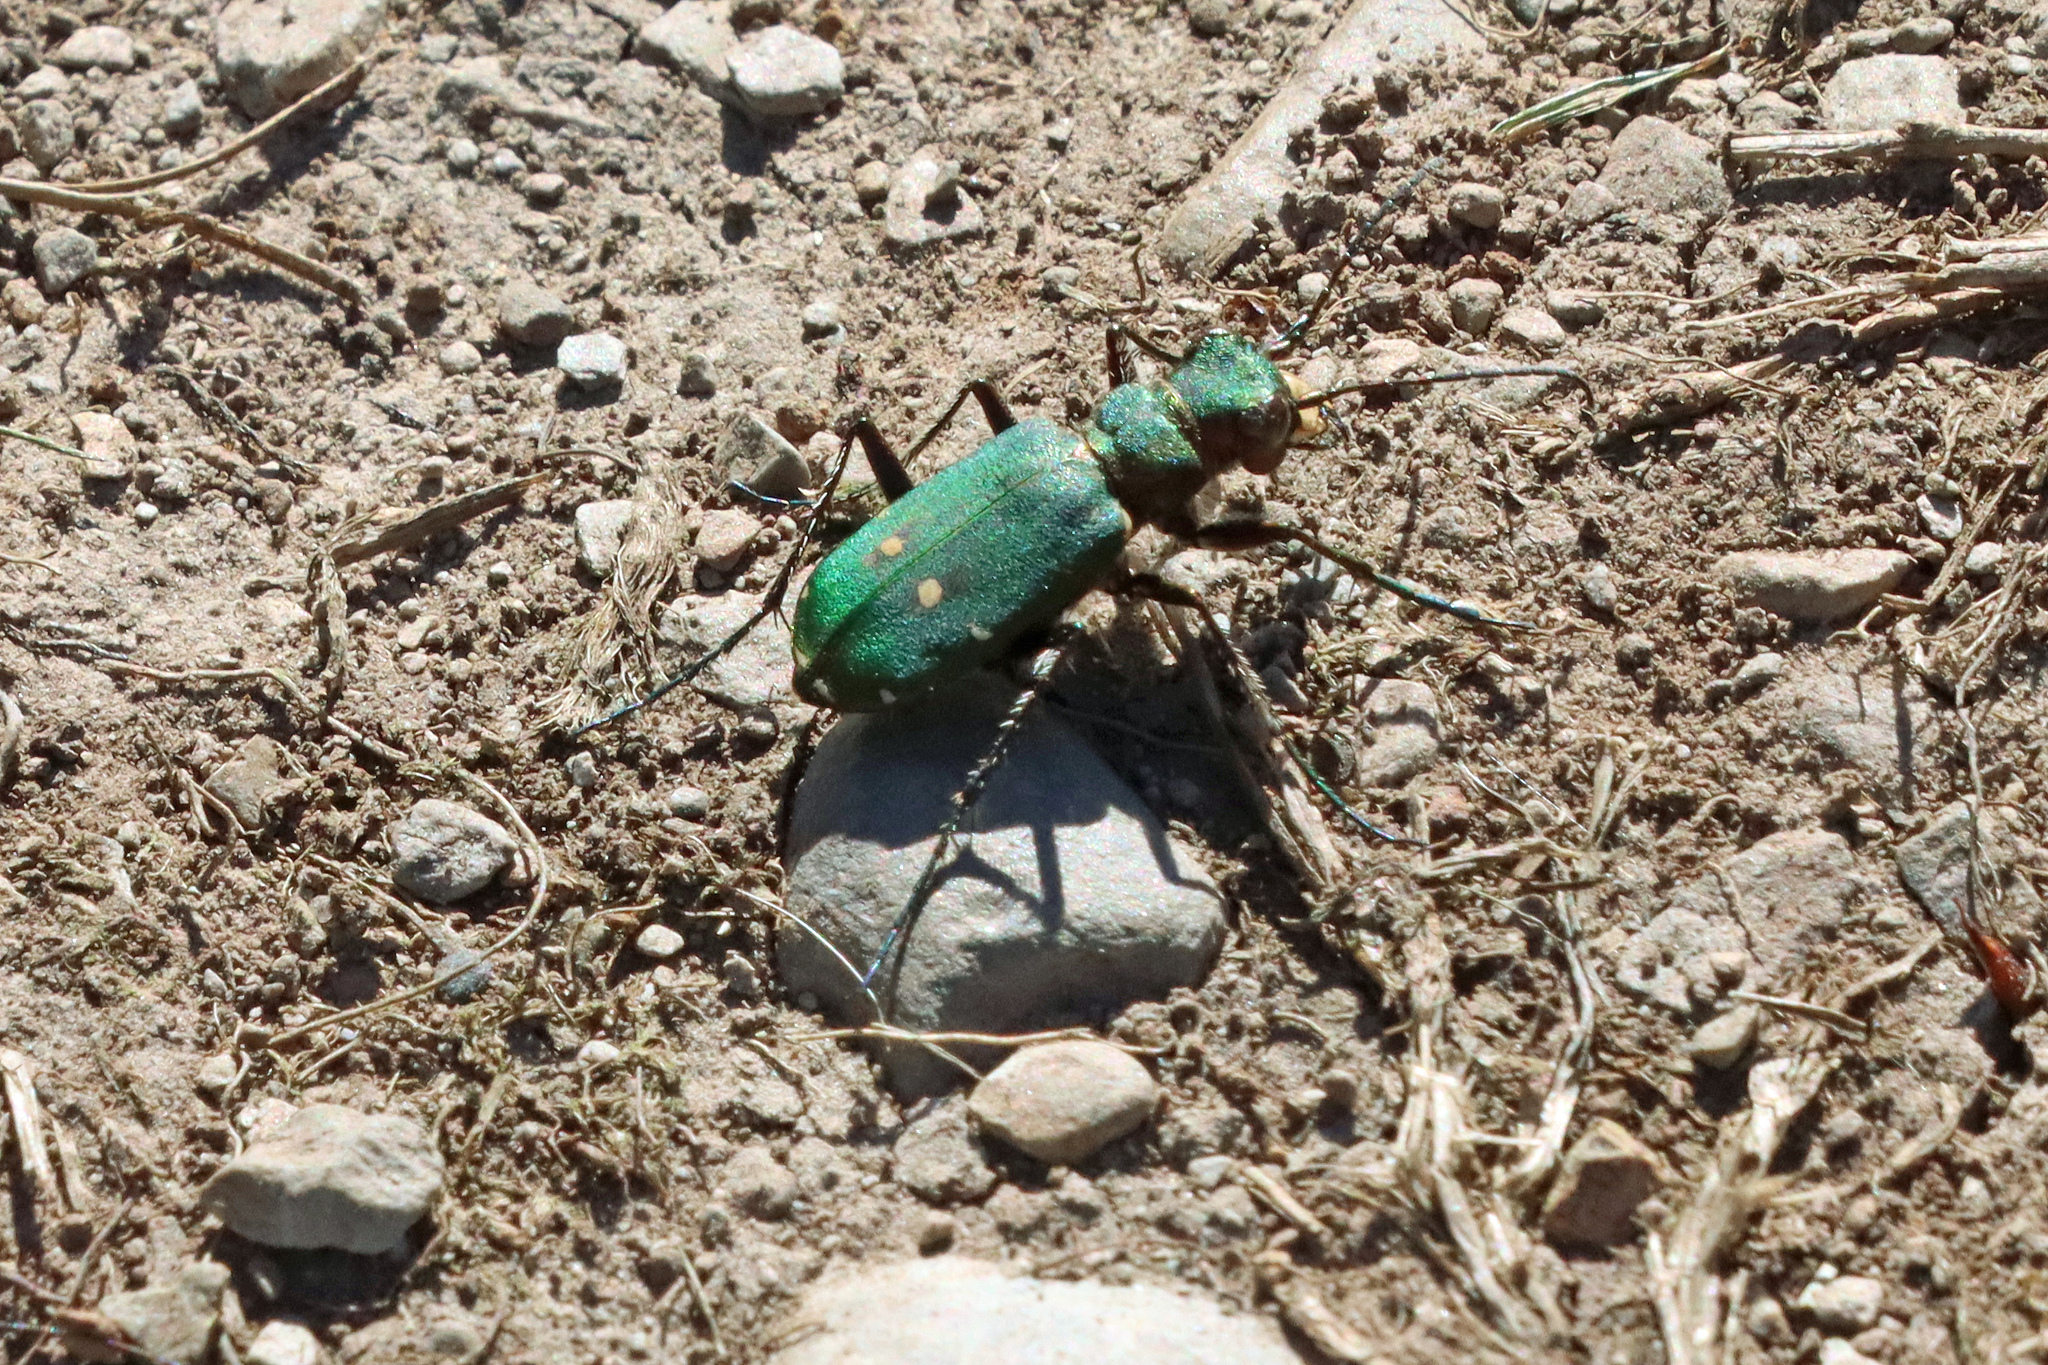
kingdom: Animalia
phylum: Arthropoda
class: Insecta
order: Coleoptera
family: Carabidae
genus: Cicindela
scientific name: Cicindela campestris
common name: Common tiger beetle
